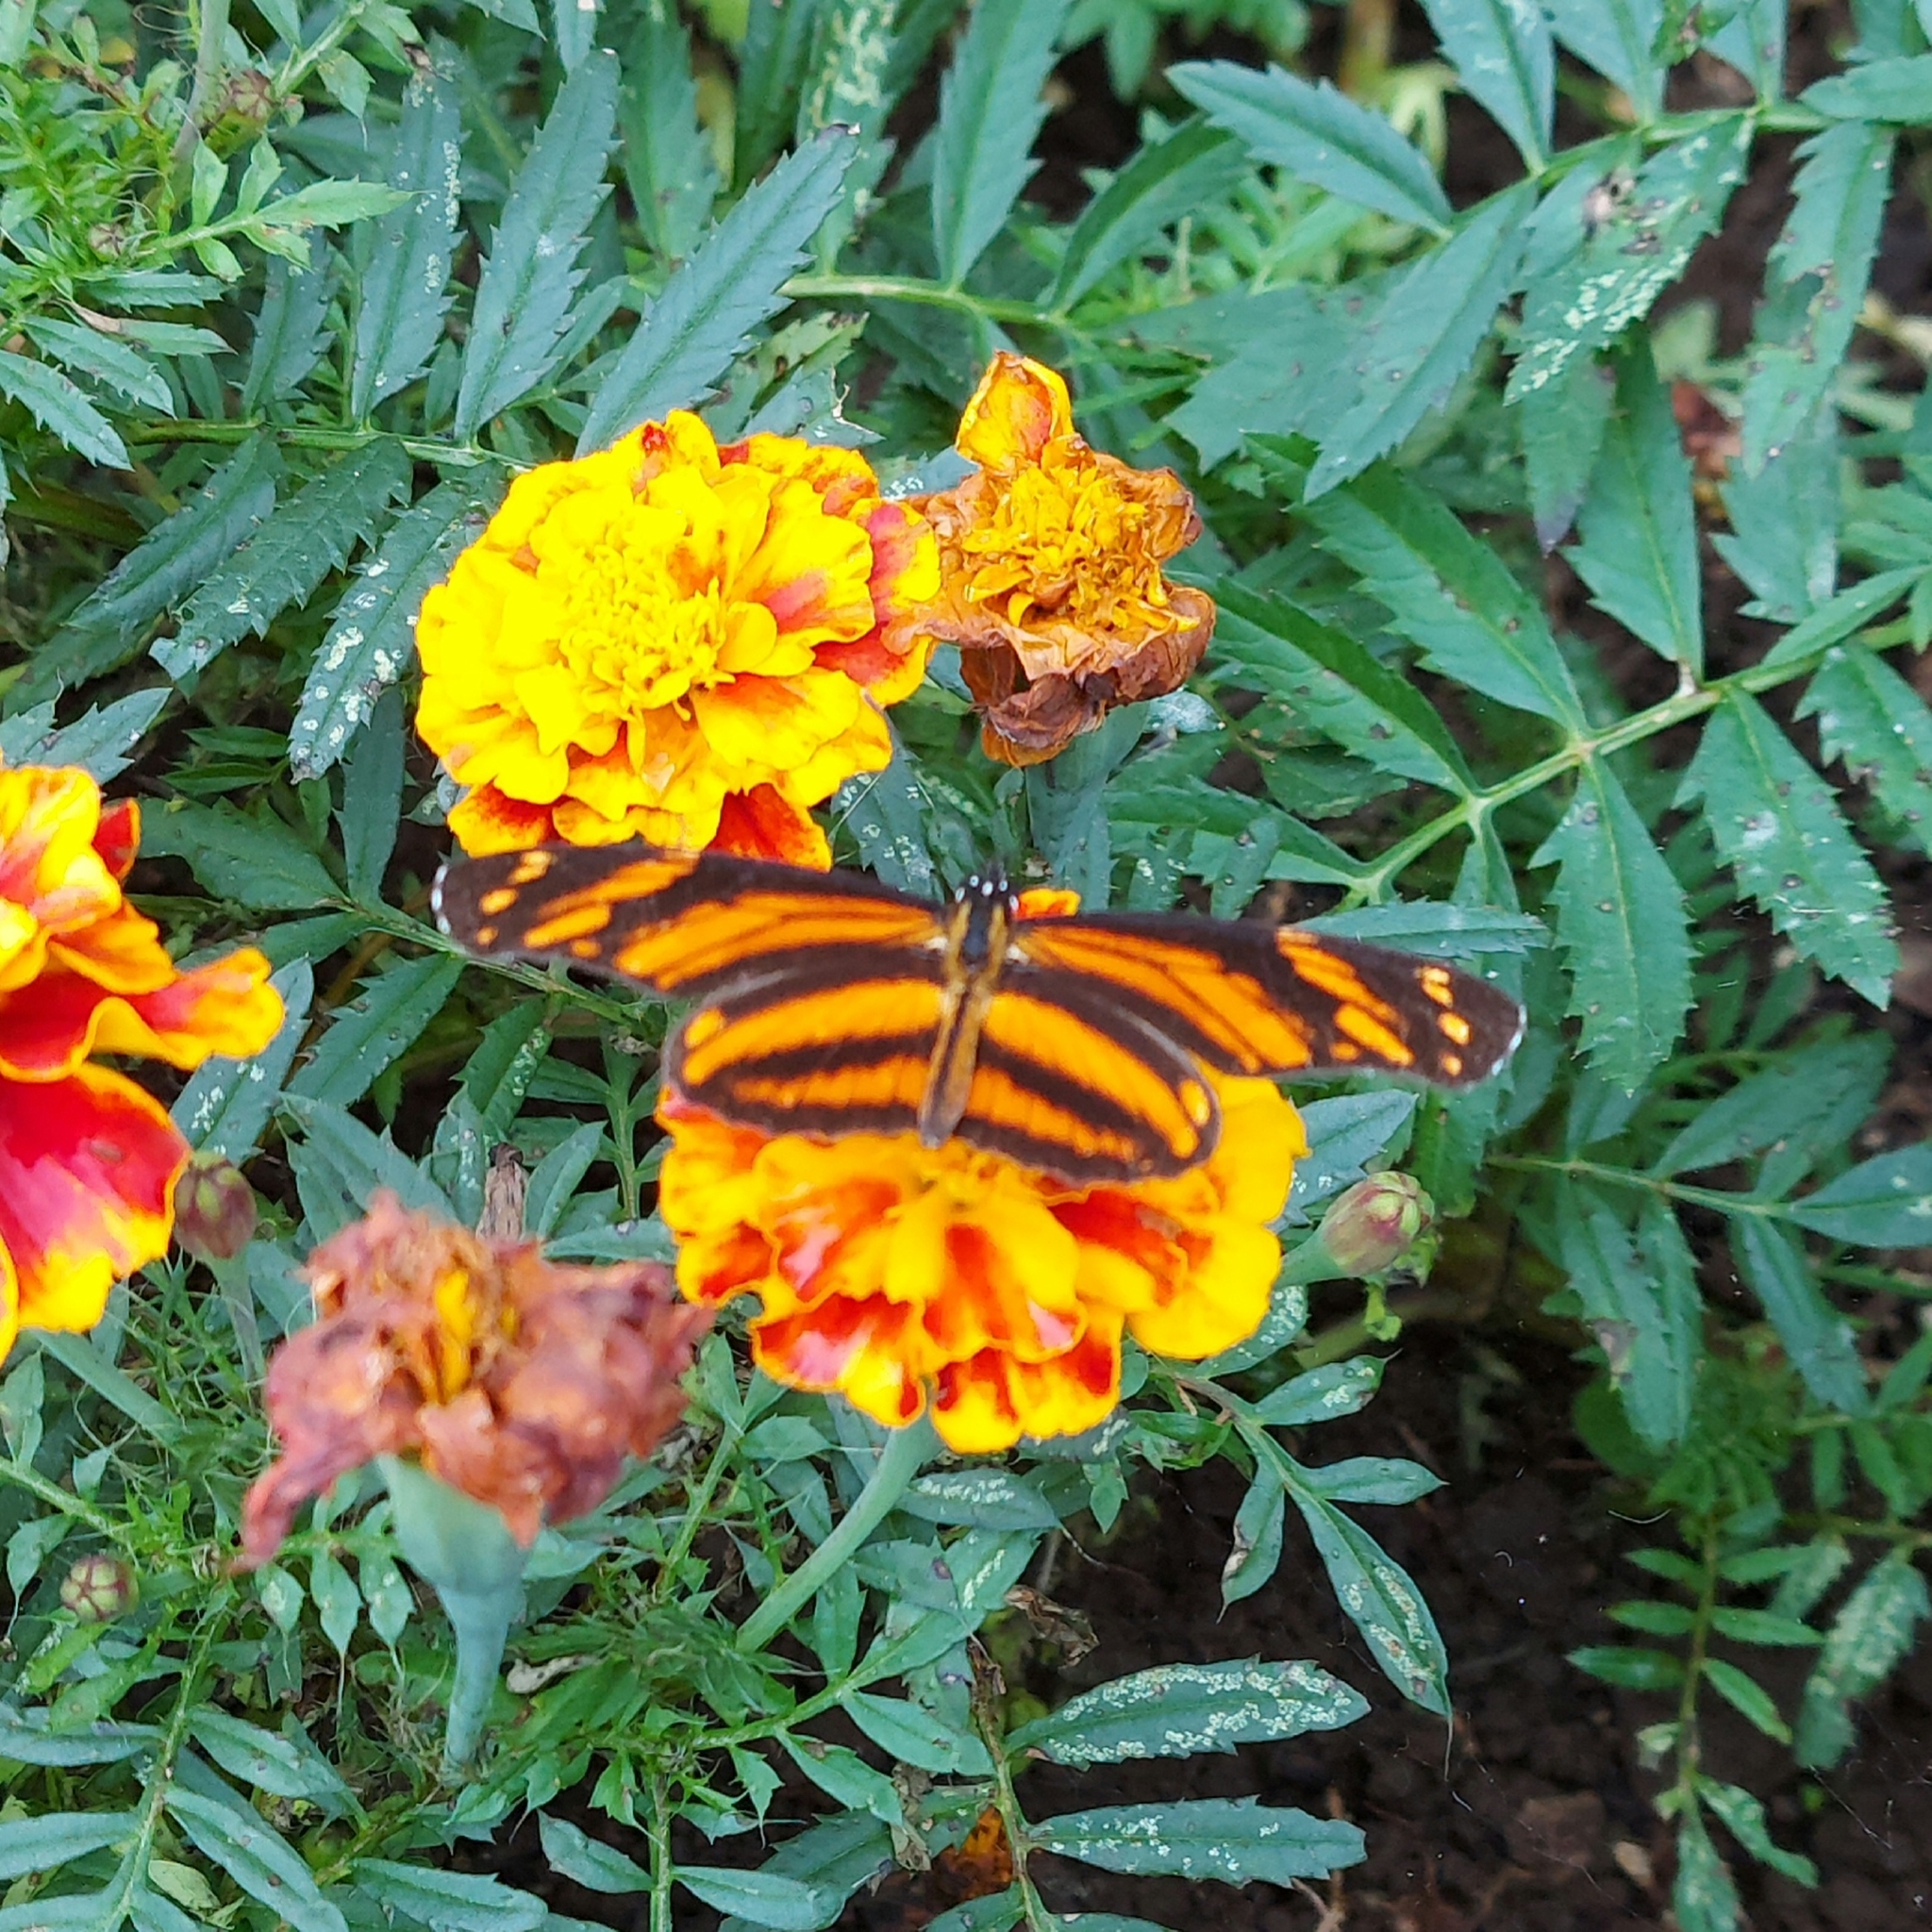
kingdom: Animalia
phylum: Arthropoda
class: Insecta
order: Lepidoptera
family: Nymphalidae
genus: Eresia
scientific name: Eresia phillyra
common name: Longwing crescent
